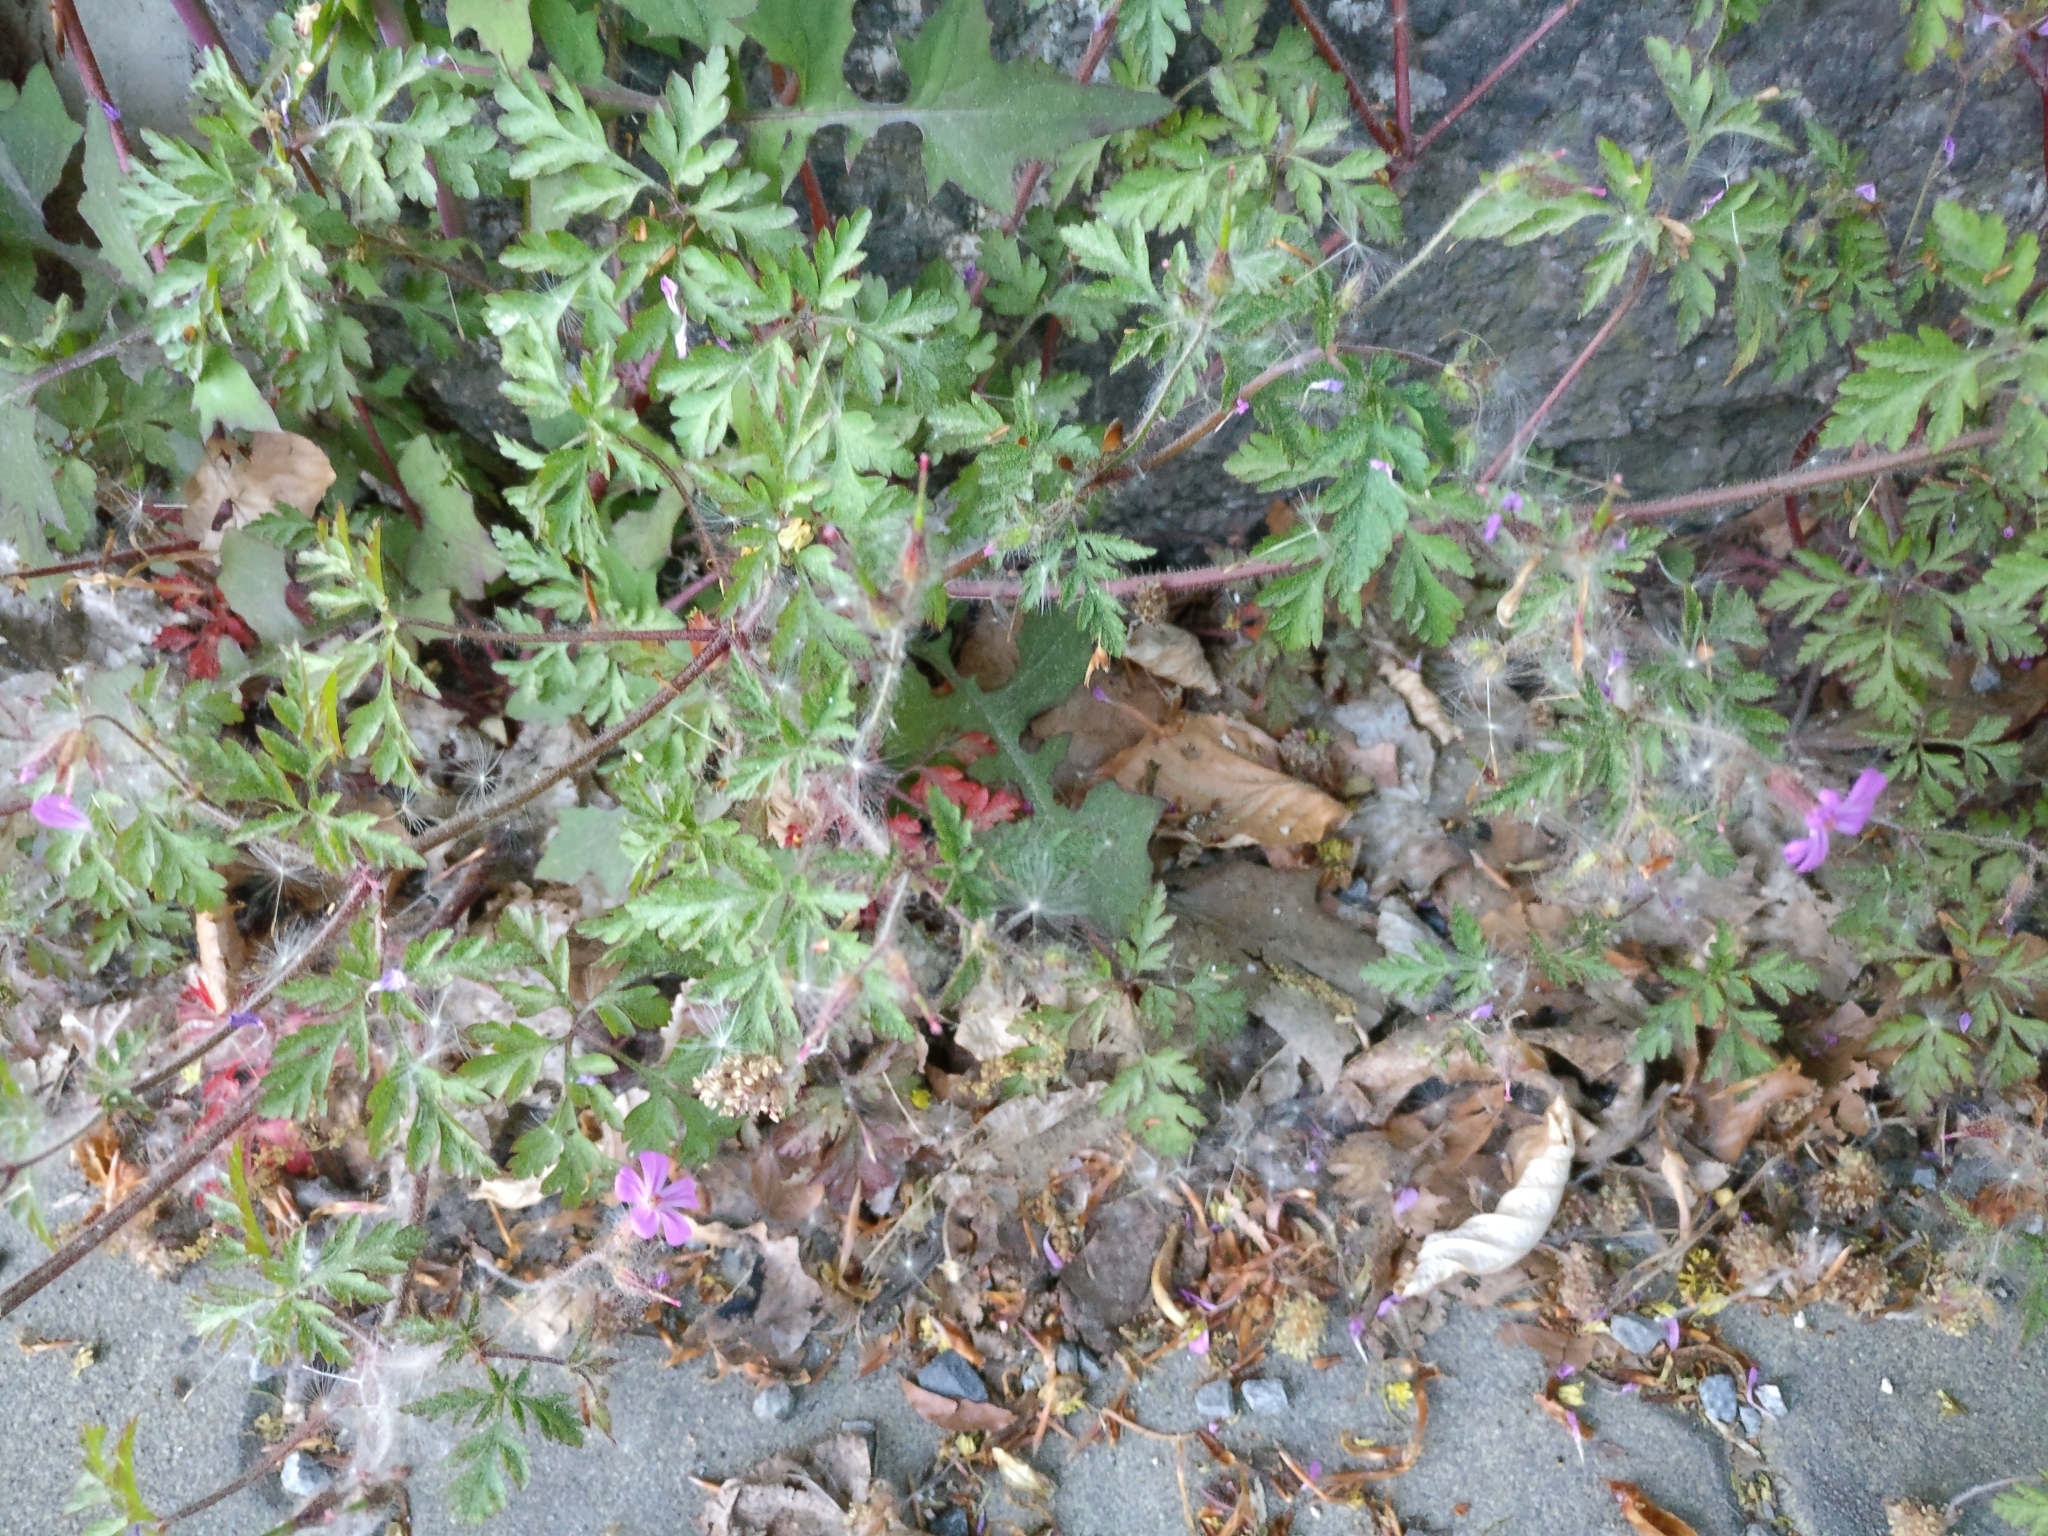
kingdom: Plantae
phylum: Tracheophyta
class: Magnoliopsida
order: Geraniales
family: Geraniaceae
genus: Geranium
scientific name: Geranium robertianum
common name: Herb-robert
